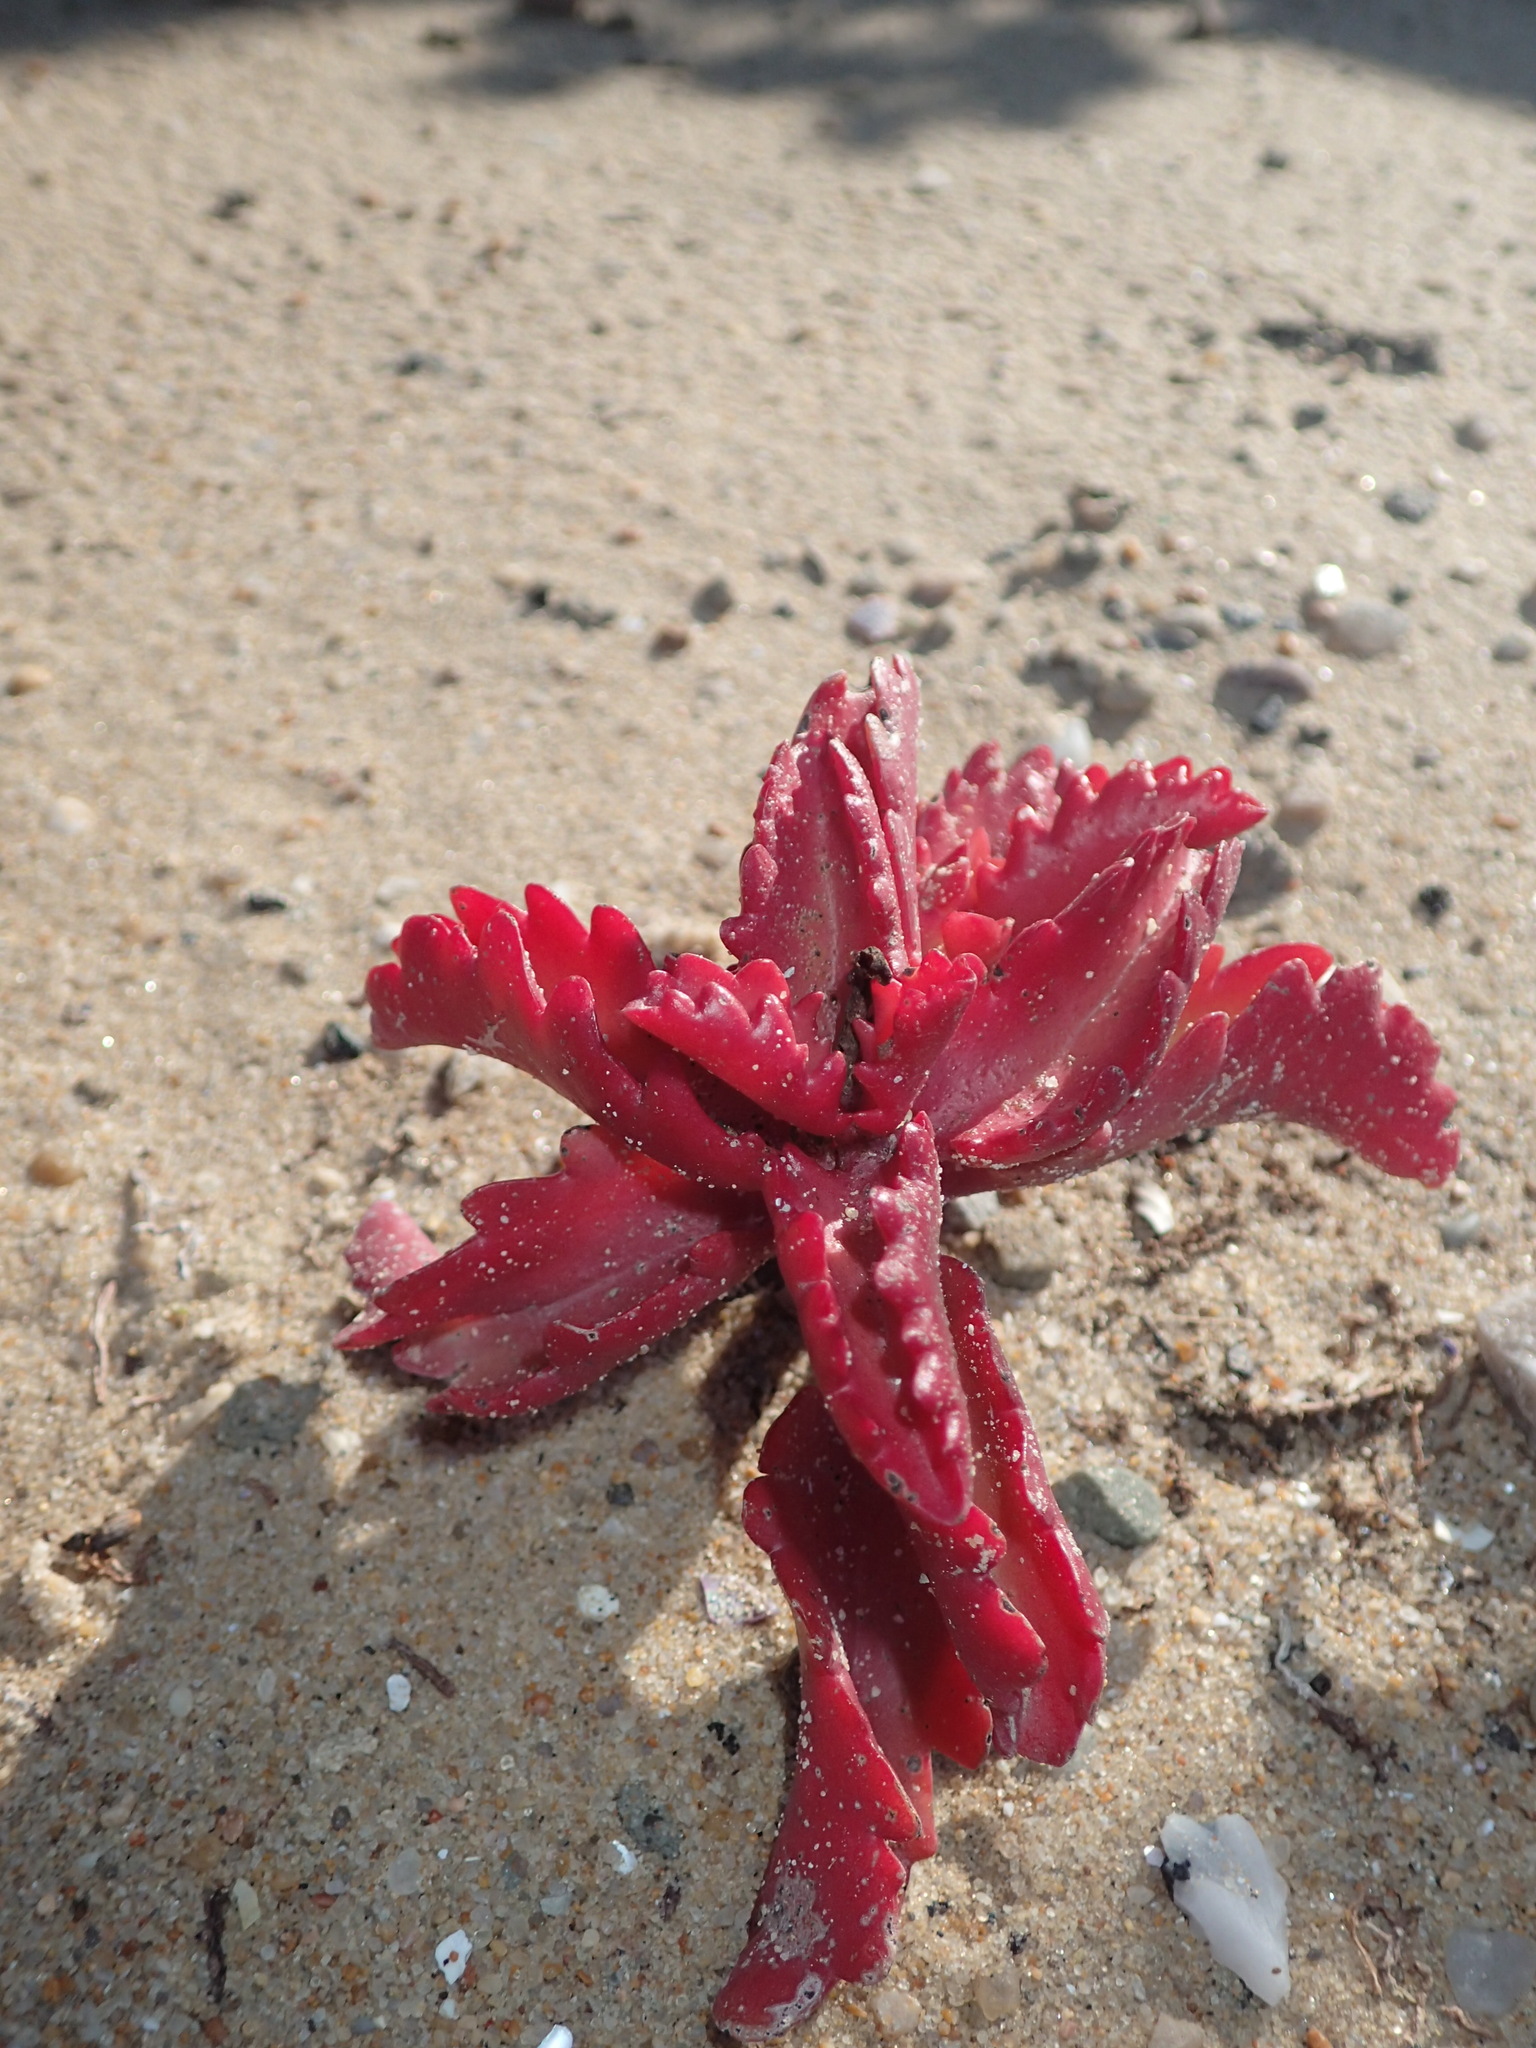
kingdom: Plantae
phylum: Tracheophyta
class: Magnoliopsida
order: Saxifragales
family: Crassulaceae
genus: Kalanchoe
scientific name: Kalanchoe sexangularis
